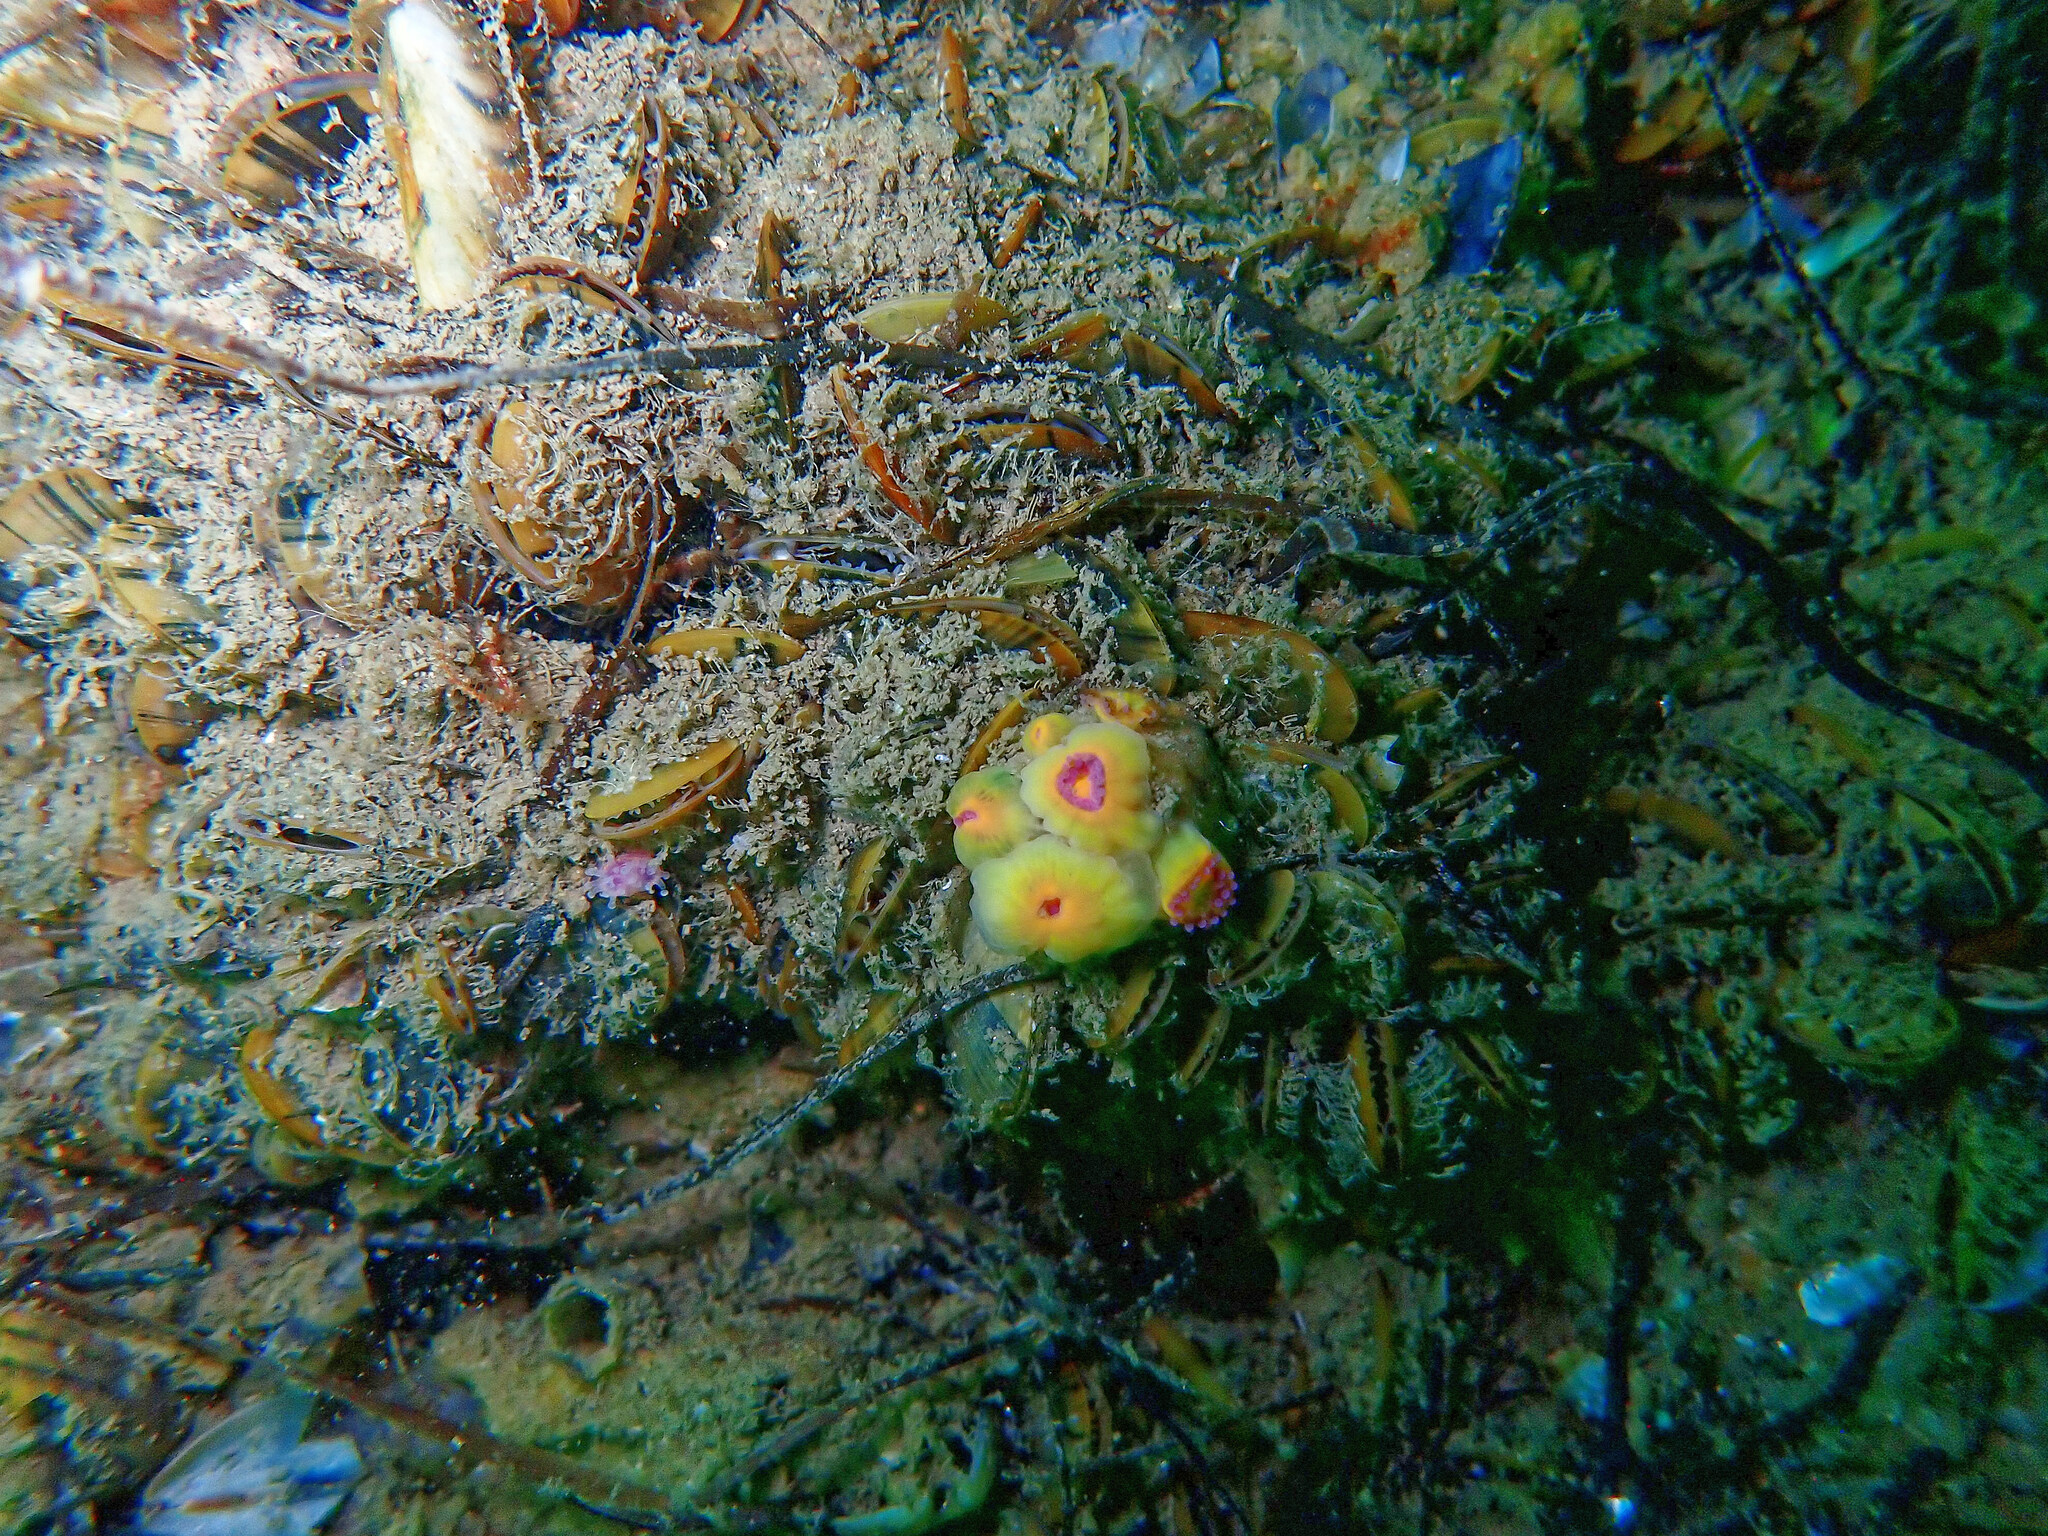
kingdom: Animalia
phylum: Cnidaria
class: Anthozoa
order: Corallimorpharia
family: Corallimorphidae
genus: Corynactis
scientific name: Corynactis viridis
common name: Jewel anemone
